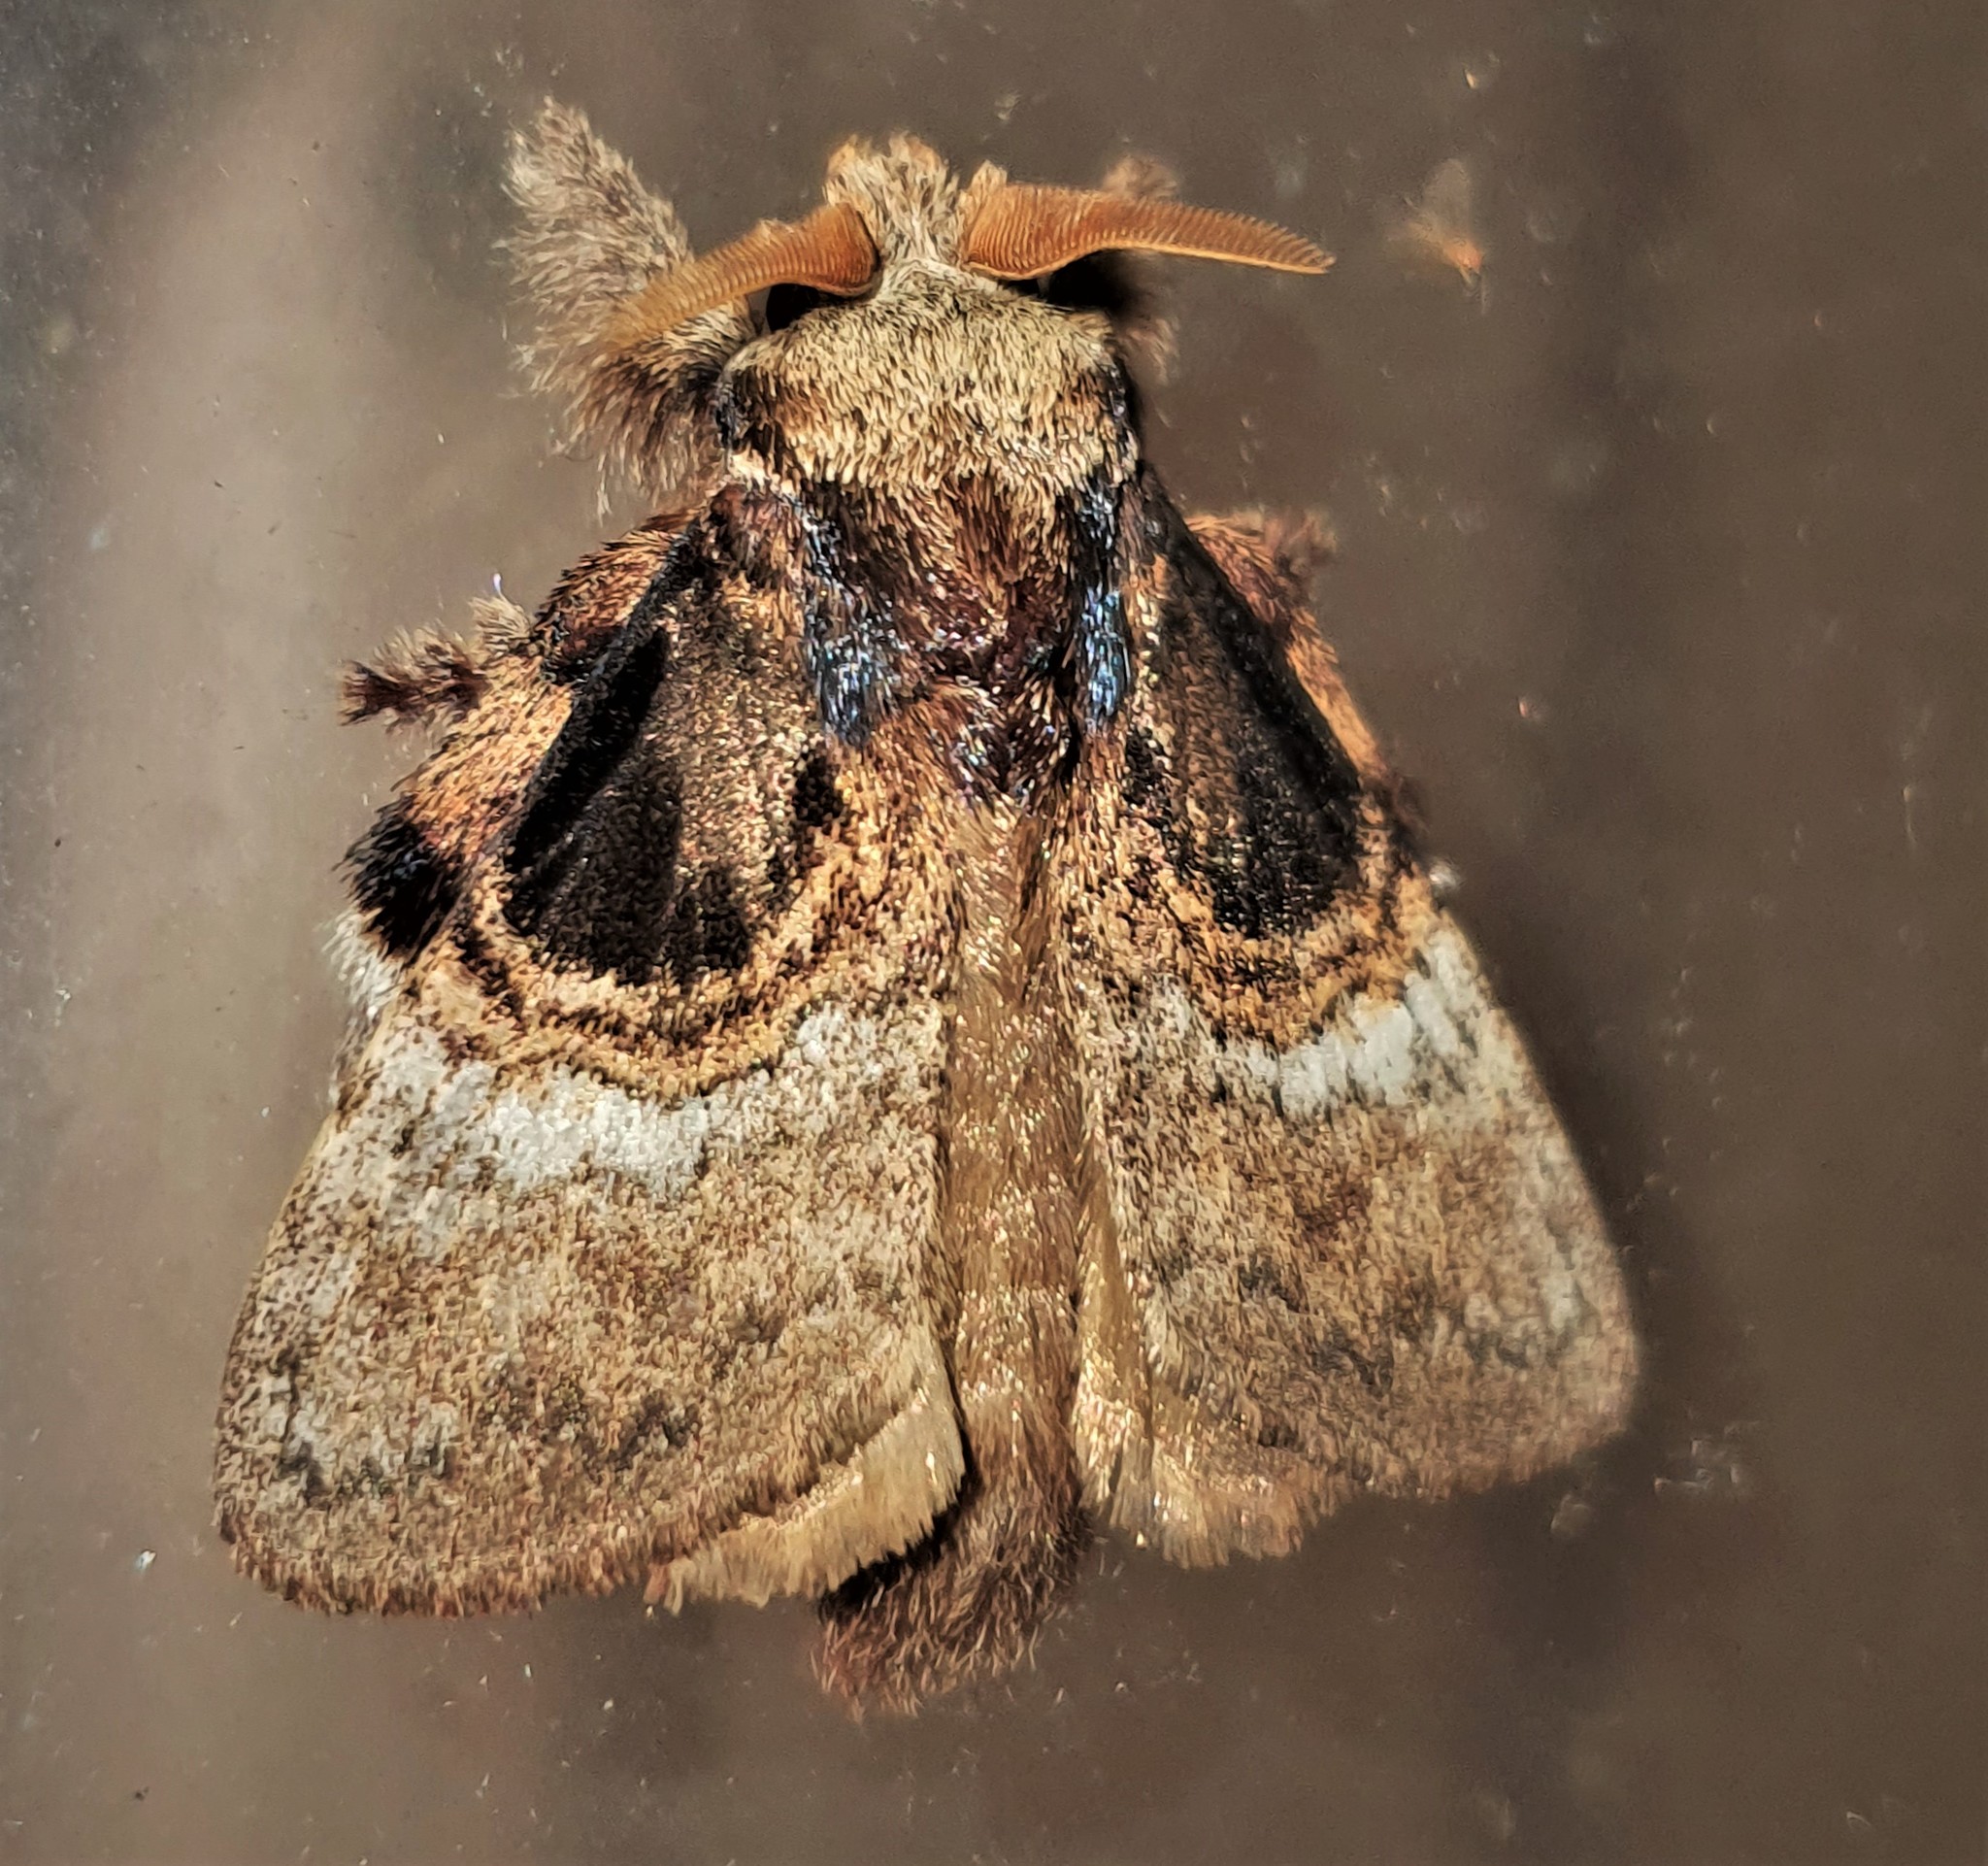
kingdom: Animalia
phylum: Arthropoda
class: Insecta
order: Lepidoptera
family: Lasiocampidae
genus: Euglyphis
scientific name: Euglyphis larunda
